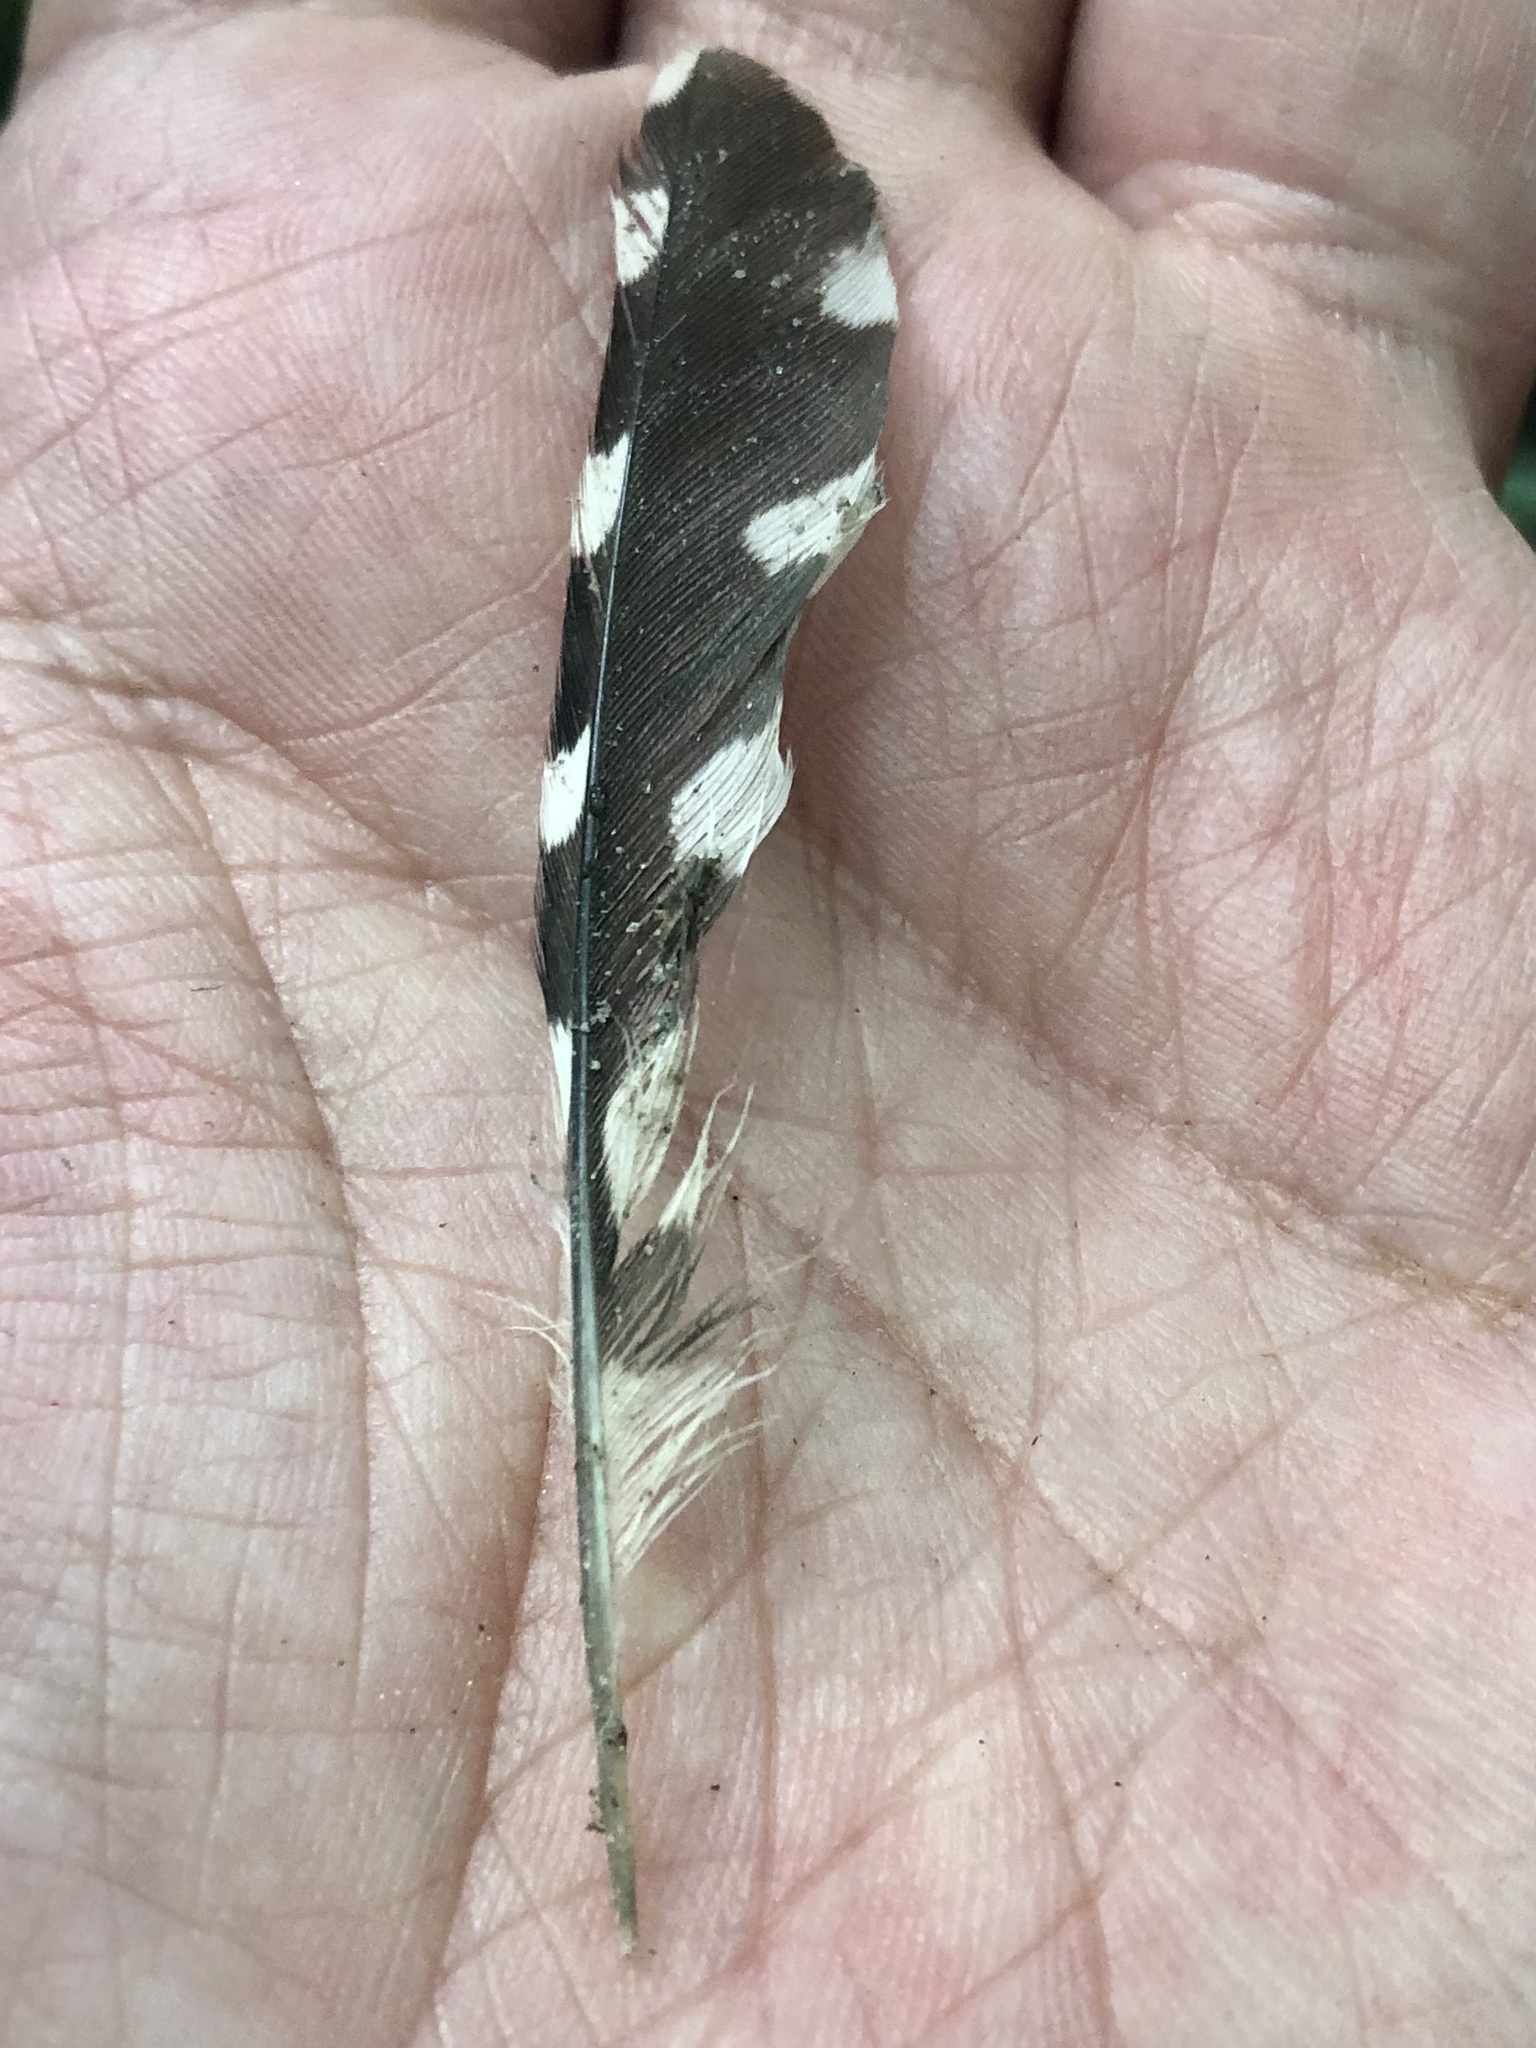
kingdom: Animalia
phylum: Chordata
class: Aves
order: Piciformes
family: Picidae
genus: Dryobates
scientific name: Dryobates pubescens
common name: Downy woodpecker
